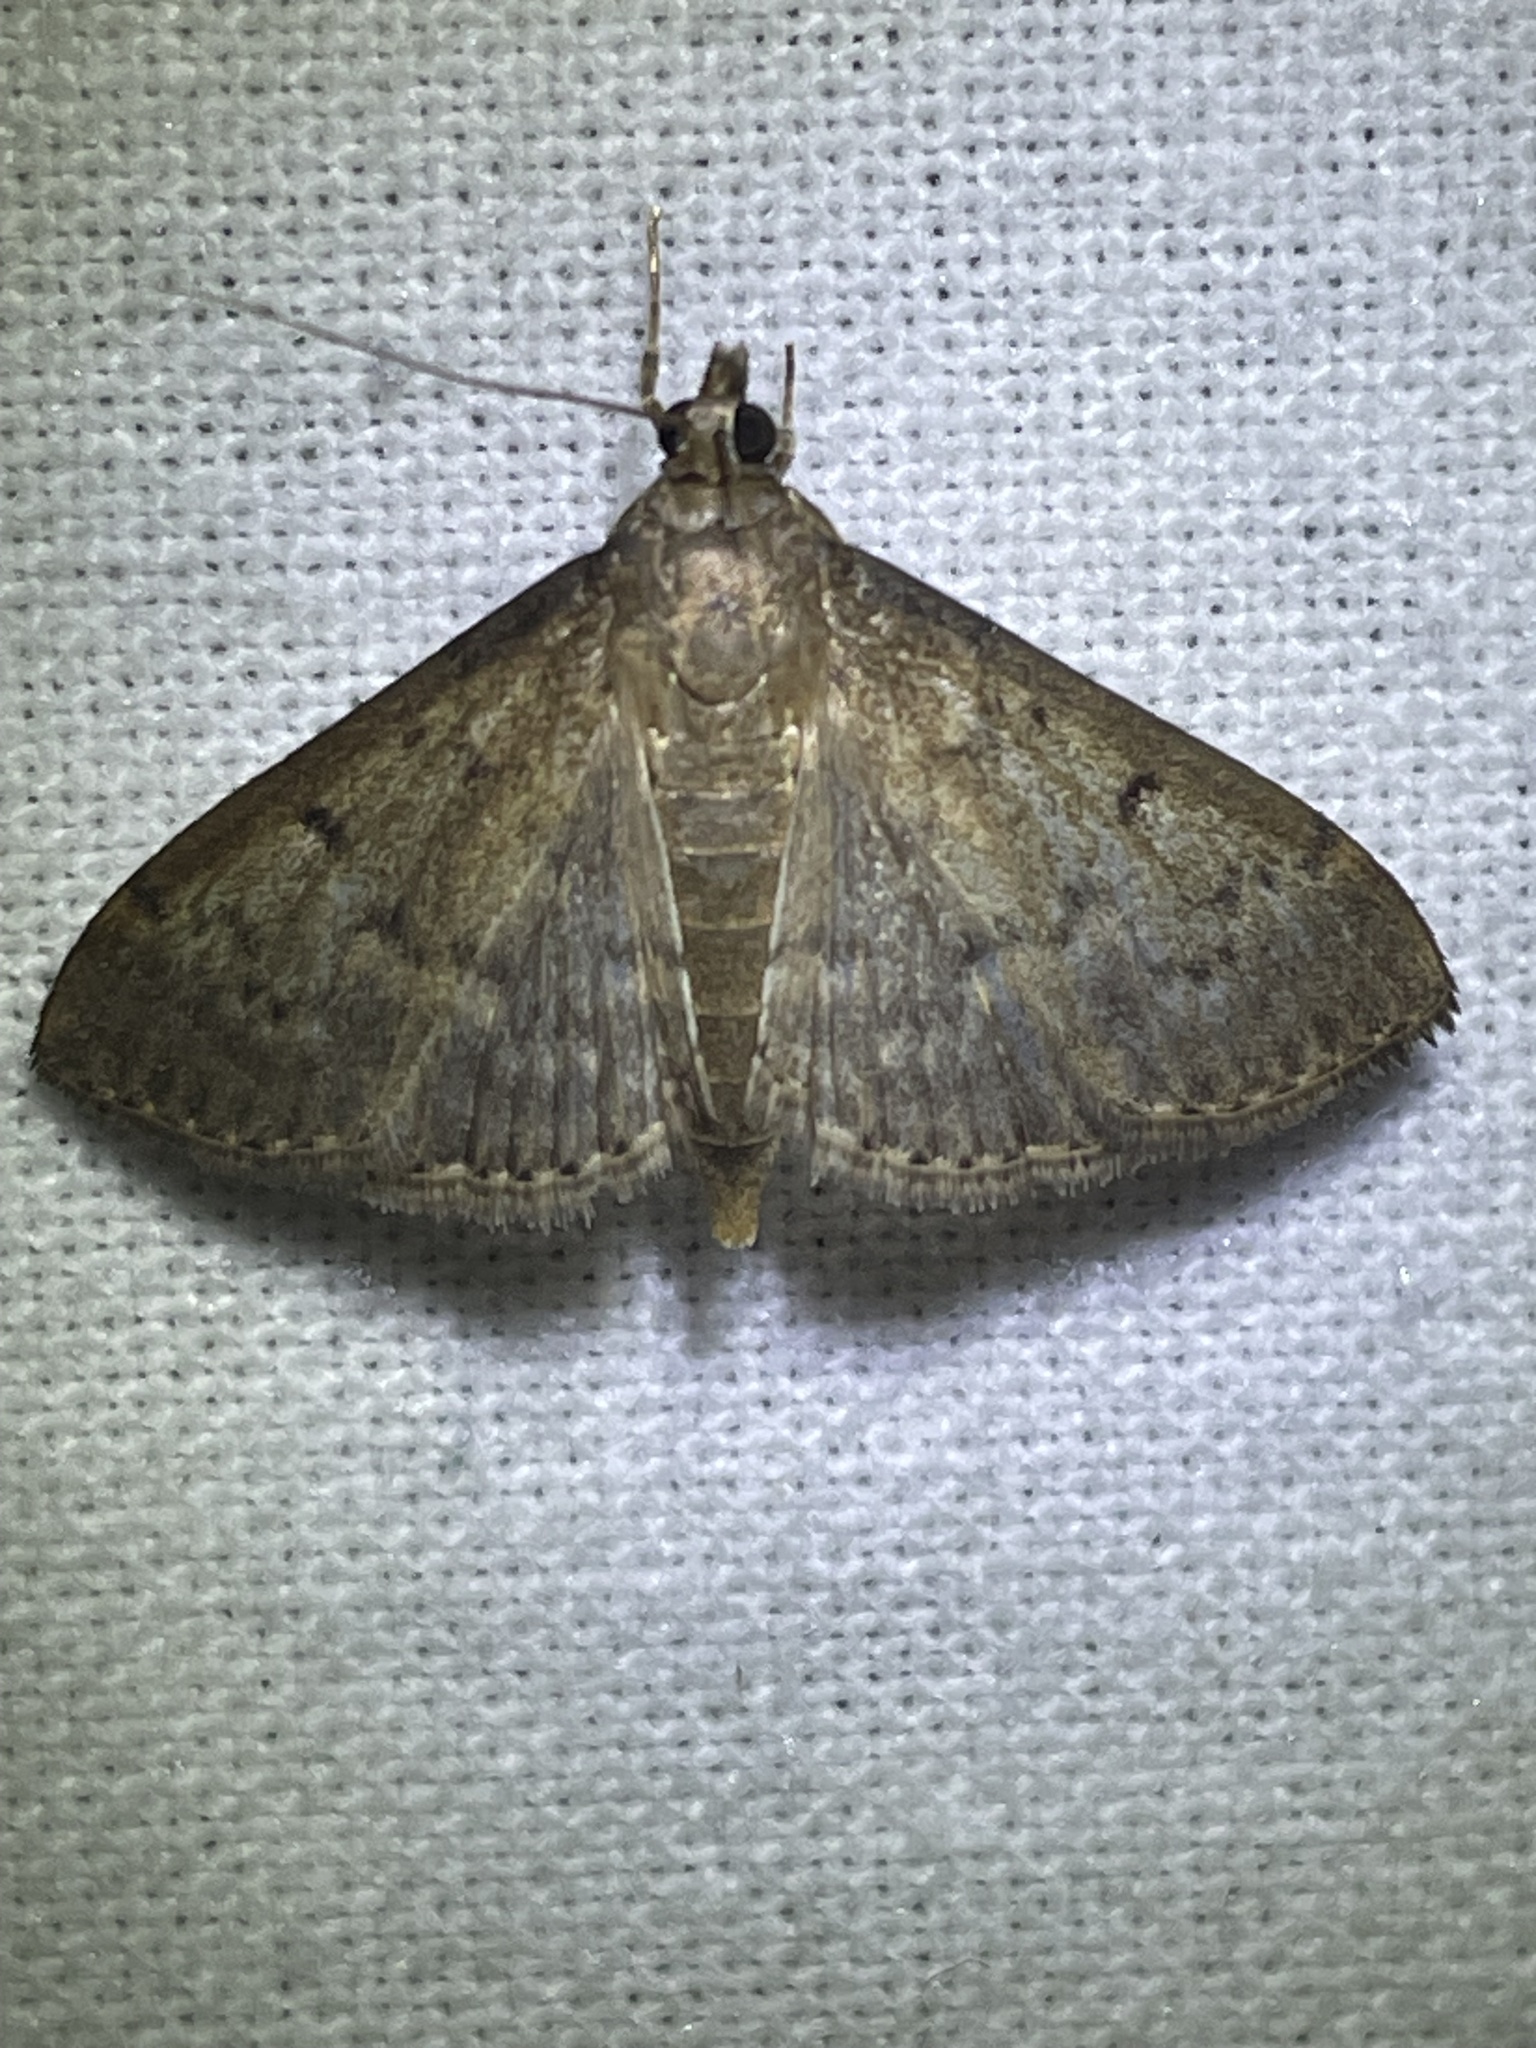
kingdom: Animalia
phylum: Arthropoda
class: Insecta
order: Lepidoptera
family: Crambidae
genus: Herpetogramma
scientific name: Herpetogramma licarsisalis
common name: Grass webworm
